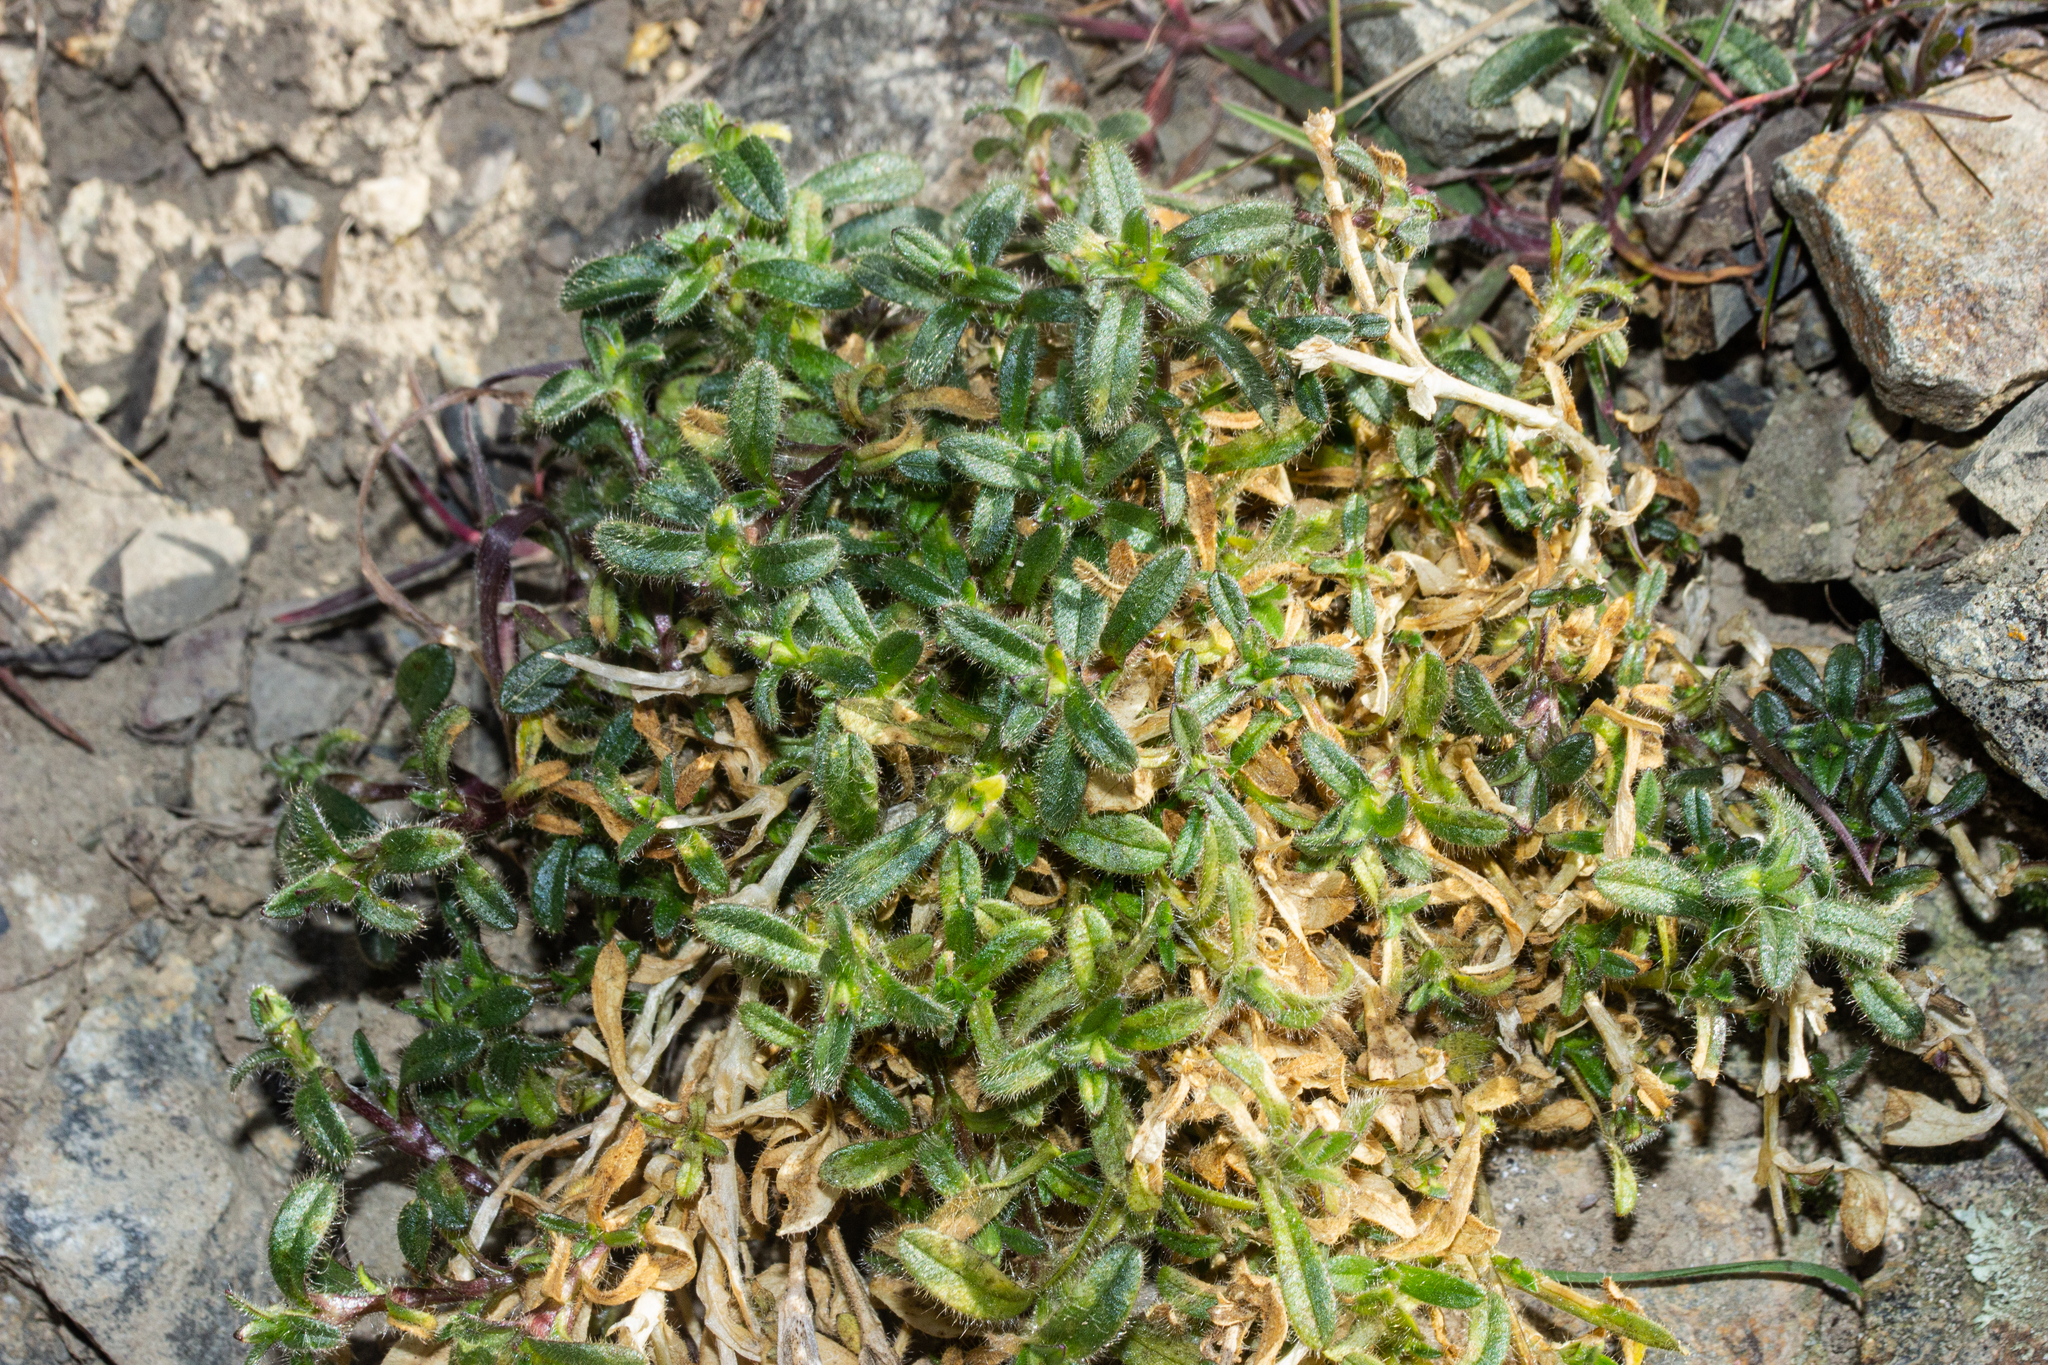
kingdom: Plantae
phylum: Tracheophyta
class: Magnoliopsida
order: Caryophyllales
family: Caryophyllaceae
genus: Cerastium
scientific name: Cerastium fontanum
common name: Common mouse-ear
